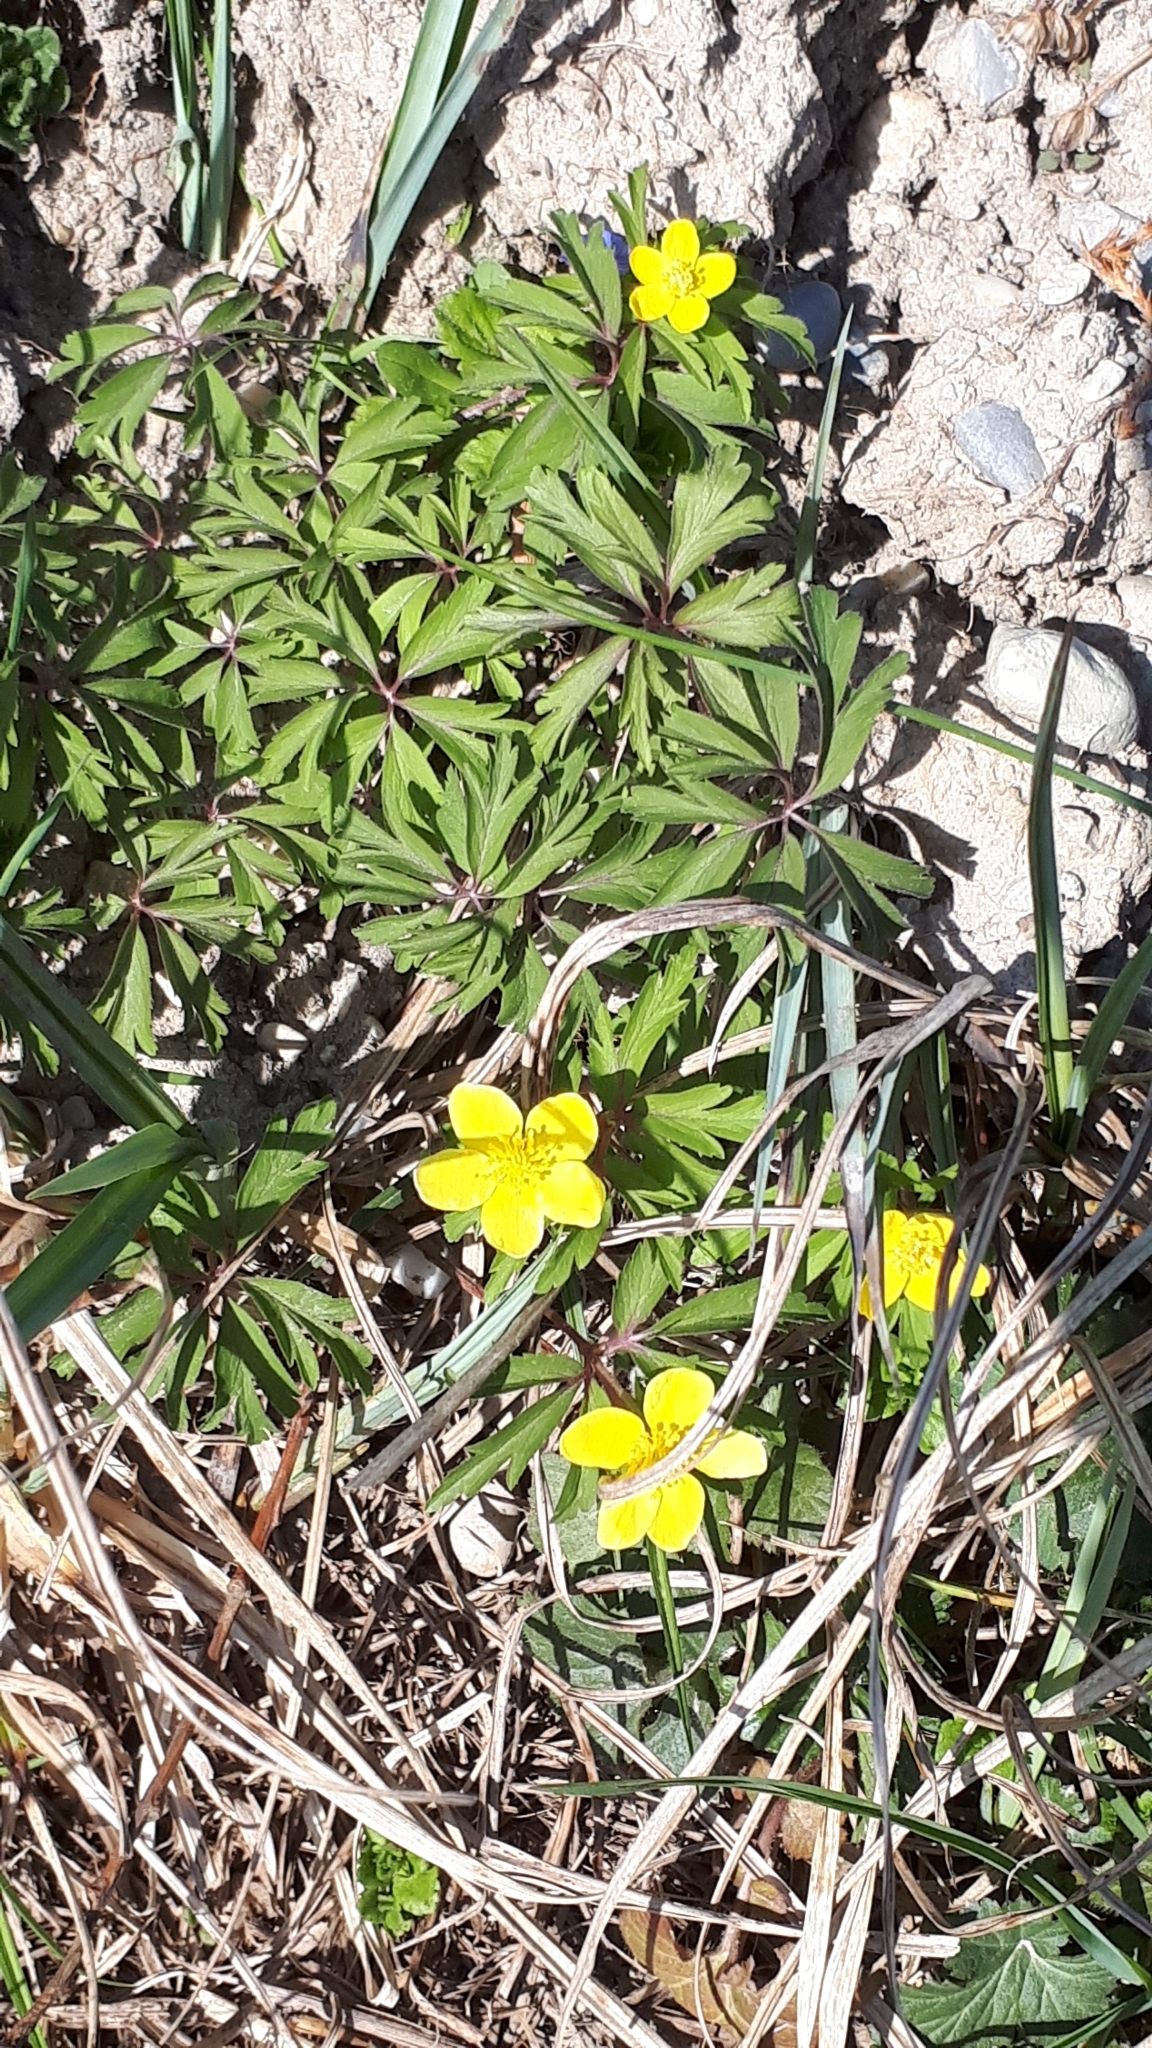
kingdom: Plantae
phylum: Tracheophyta
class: Magnoliopsida
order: Ranunculales
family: Ranunculaceae
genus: Anemone
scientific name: Anemone ranunculoides
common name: Yellow anemone
